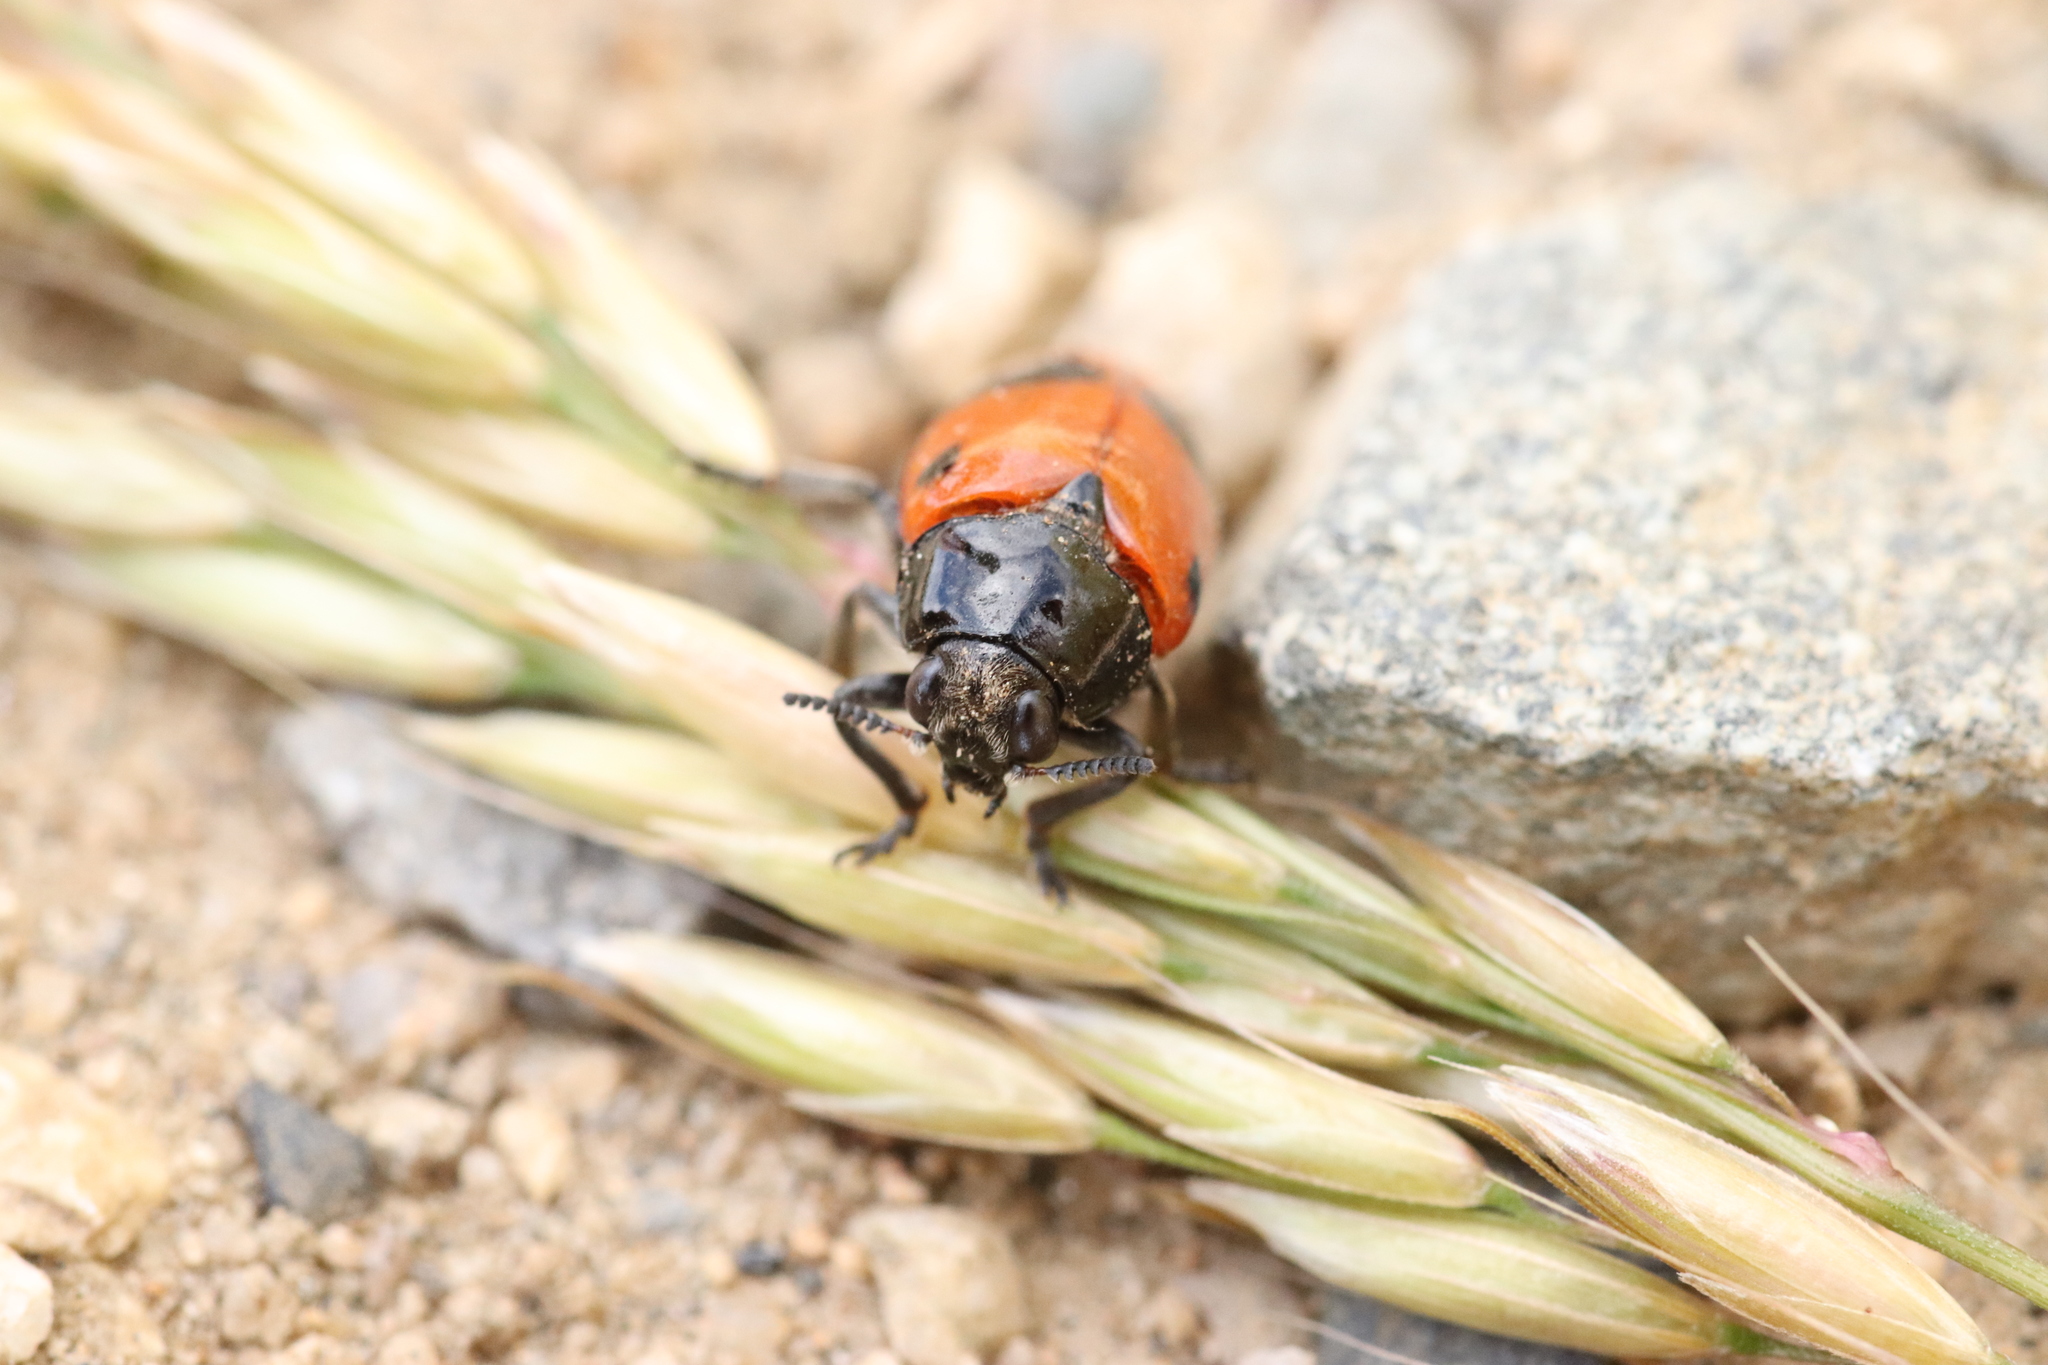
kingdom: Animalia
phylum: Arthropoda
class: Insecta
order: Coleoptera
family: Chrysomelidae
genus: Clytra
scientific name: Clytra laeviuscula
